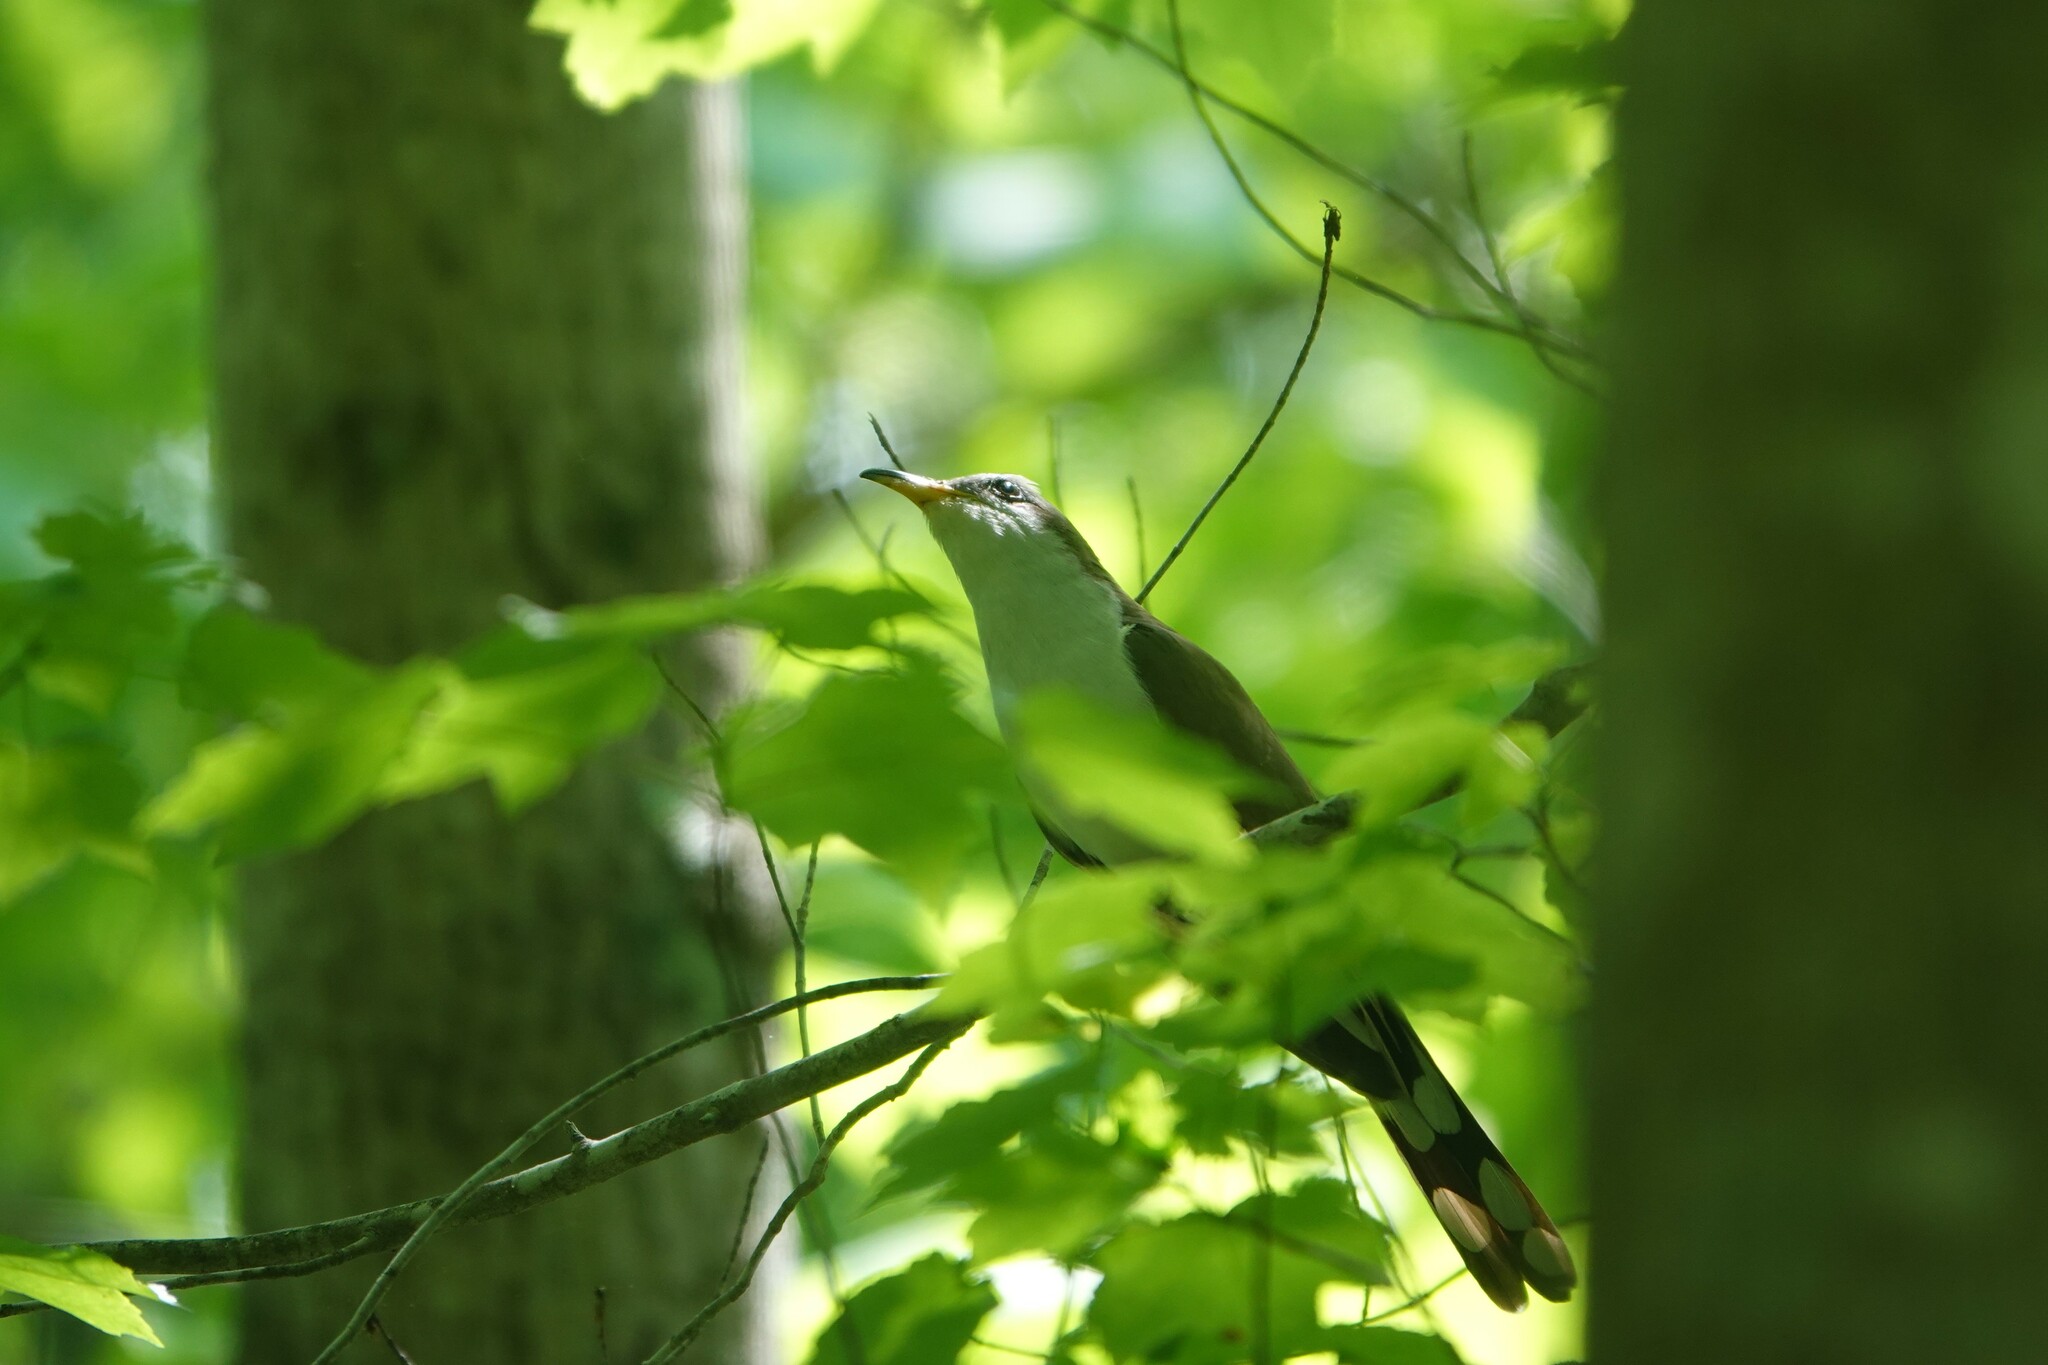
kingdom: Animalia
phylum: Chordata
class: Aves
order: Cuculiformes
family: Cuculidae
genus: Coccyzus
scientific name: Coccyzus americanus
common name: Yellow-billed cuckoo
